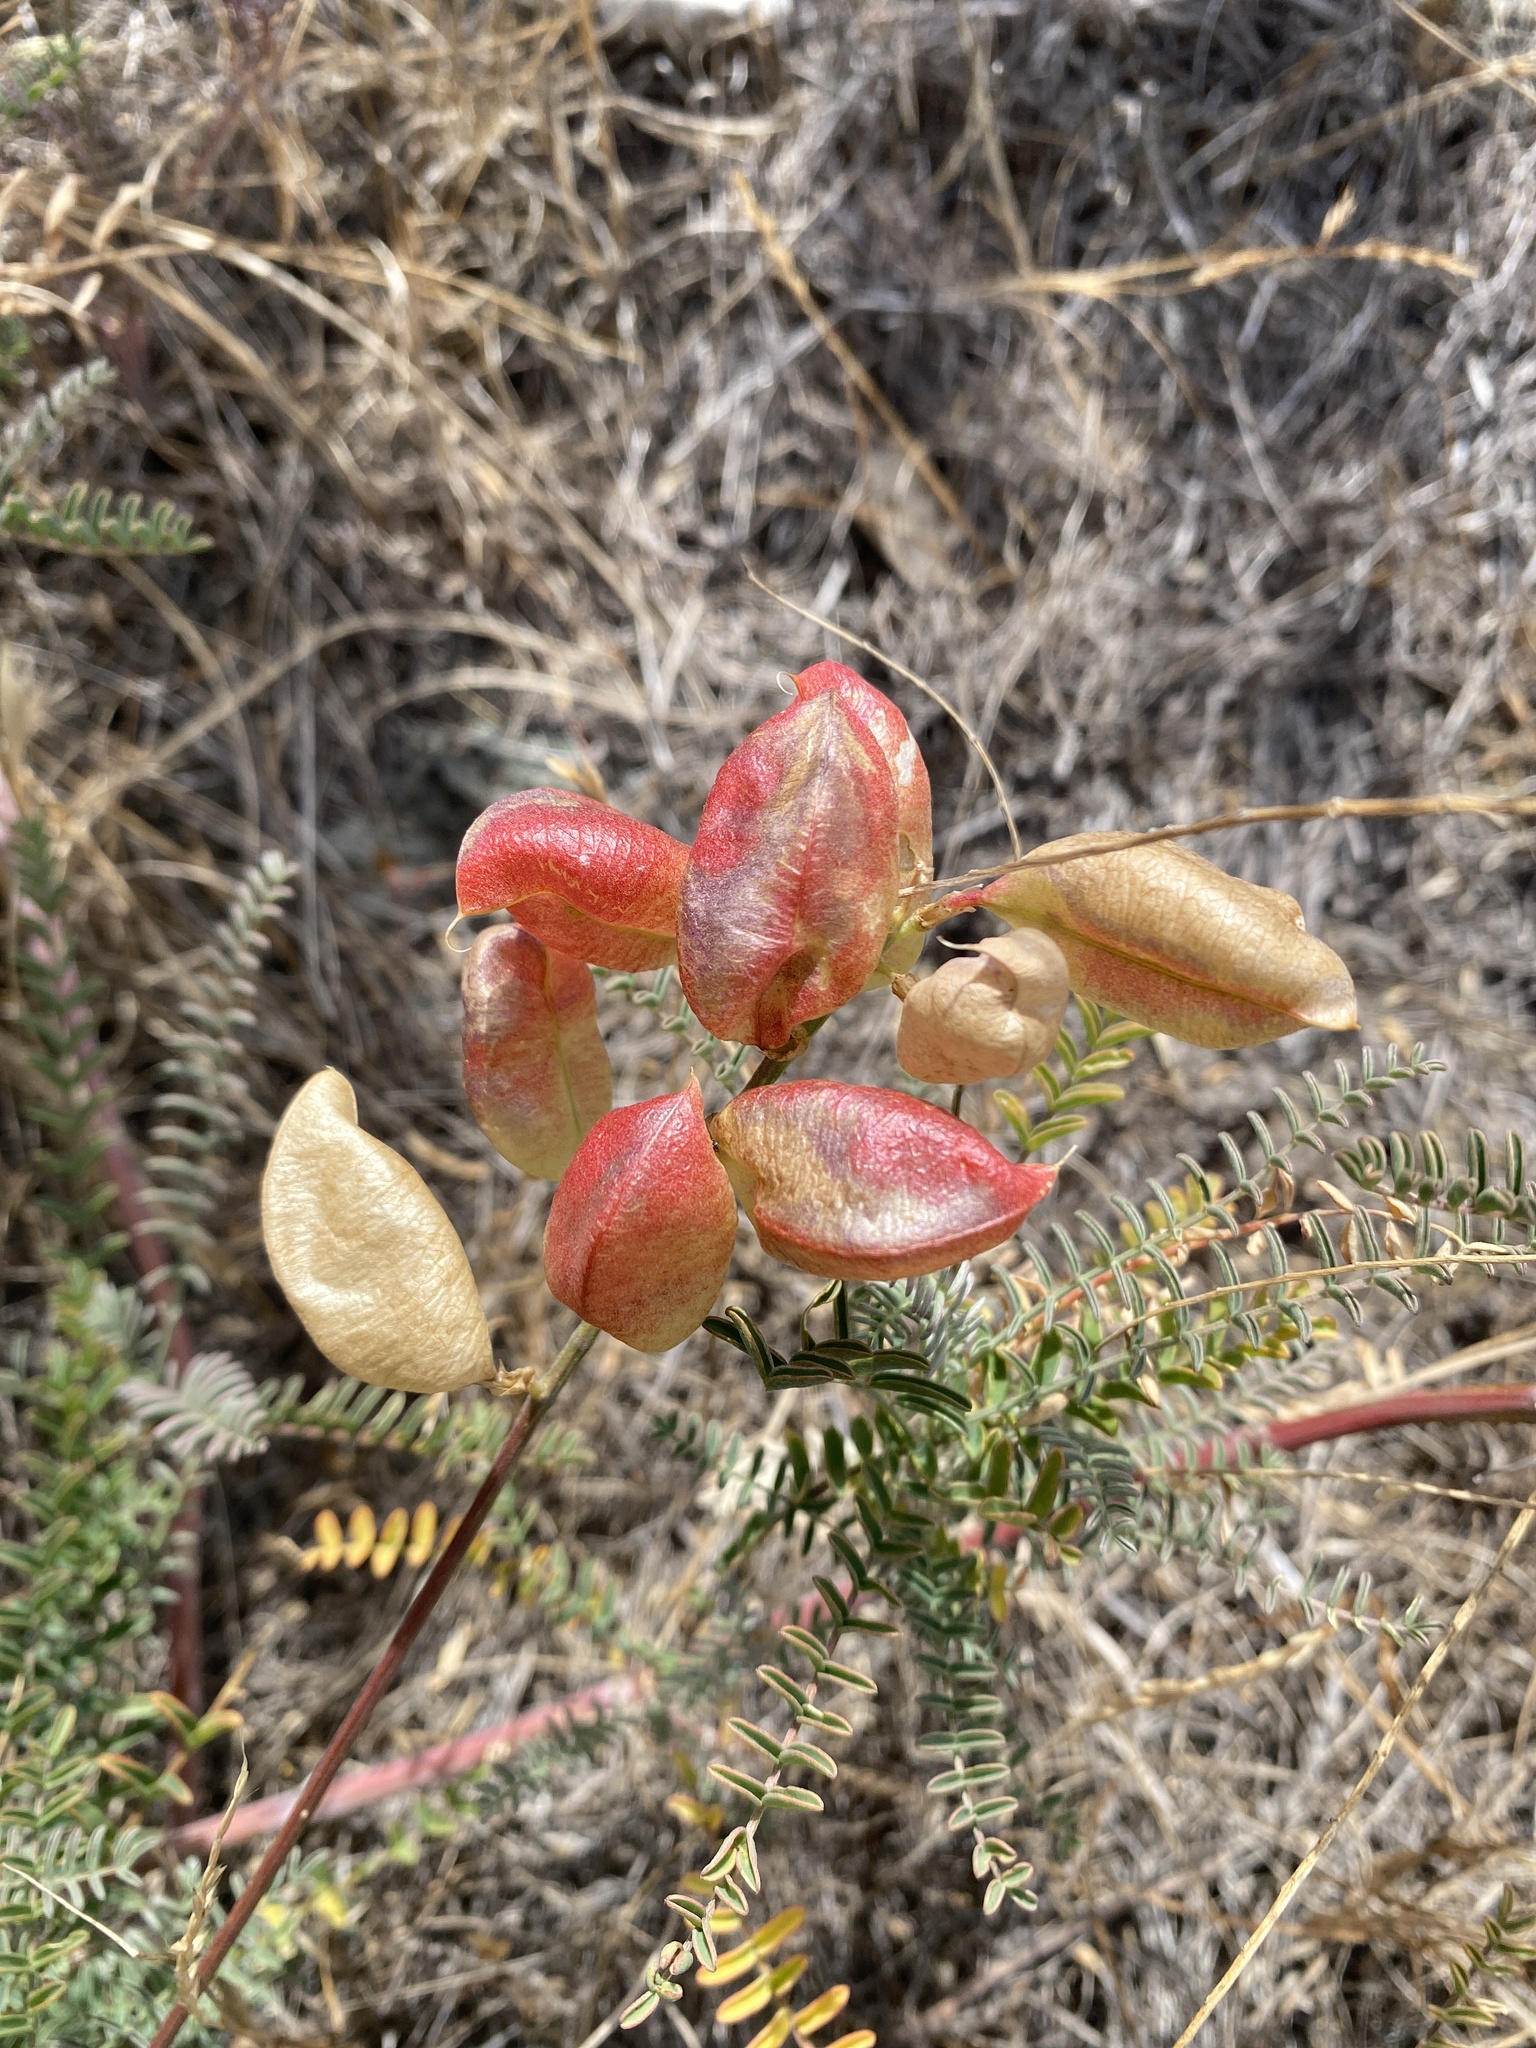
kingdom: Plantae
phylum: Tracheophyta
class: Magnoliopsida
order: Fabales
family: Fabaceae
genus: Astragalus
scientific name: Astragalus curtipes
